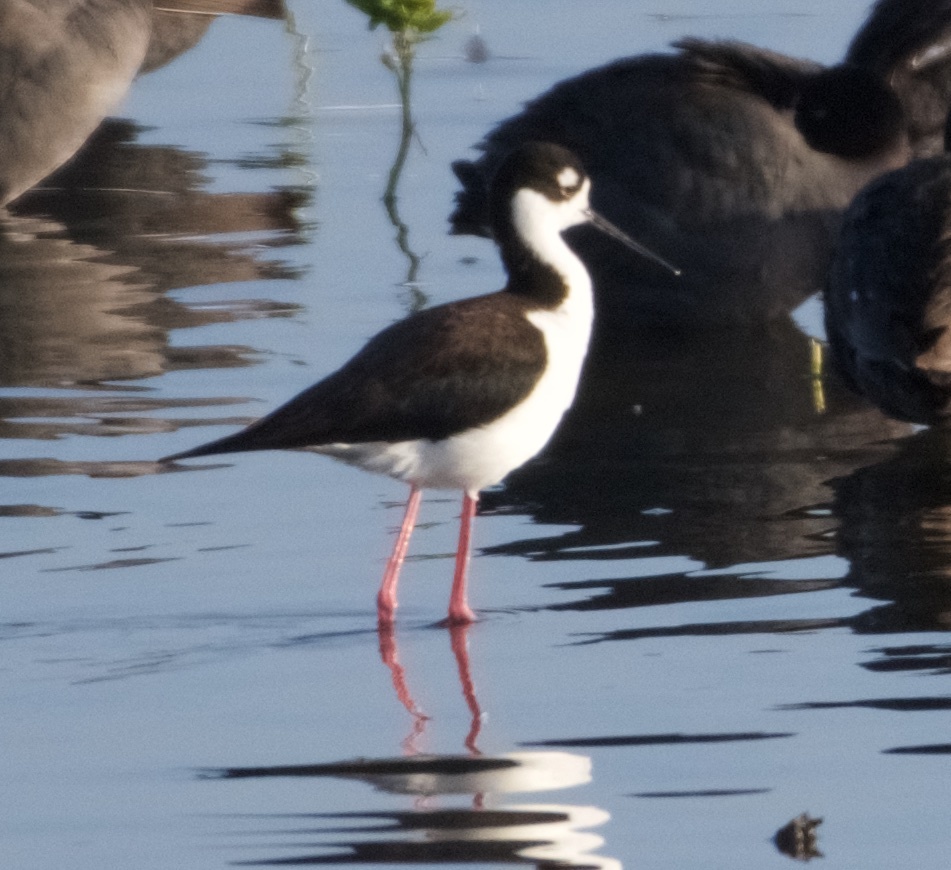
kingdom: Animalia
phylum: Chordata
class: Aves
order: Charadriiformes
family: Recurvirostridae
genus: Himantopus
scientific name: Himantopus mexicanus
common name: Black-necked stilt
